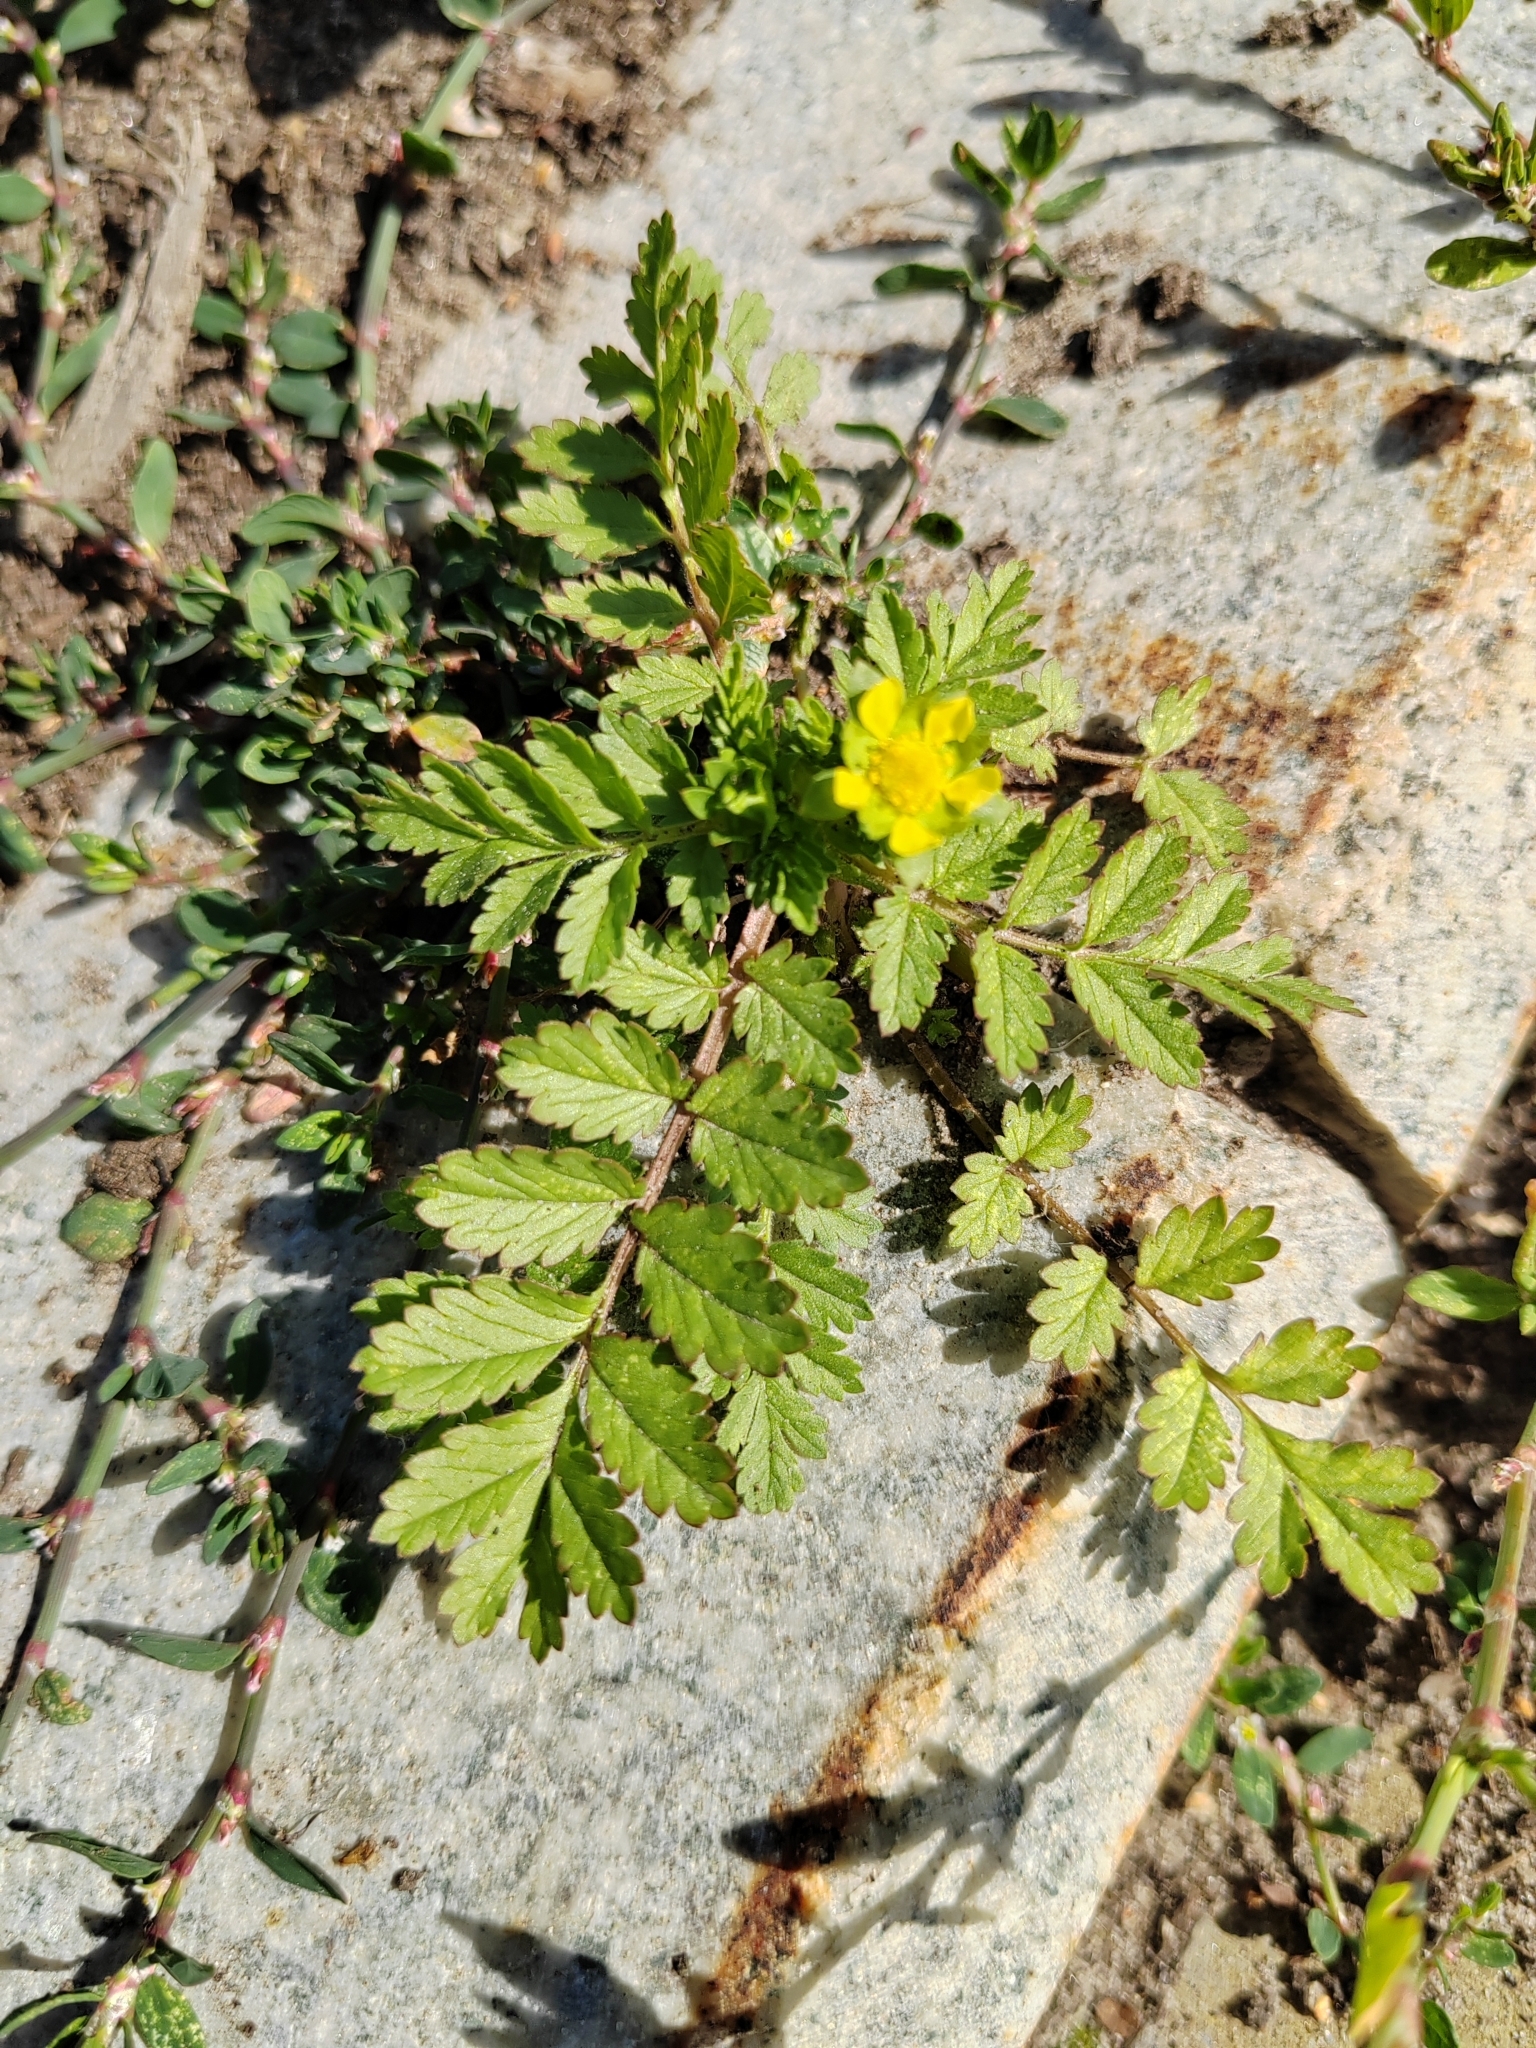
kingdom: Plantae
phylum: Tracheophyta
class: Magnoliopsida
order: Rosales
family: Rosaceae
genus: Potentilla
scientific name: Potentilla supina
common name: Prostrate cinquefoil
